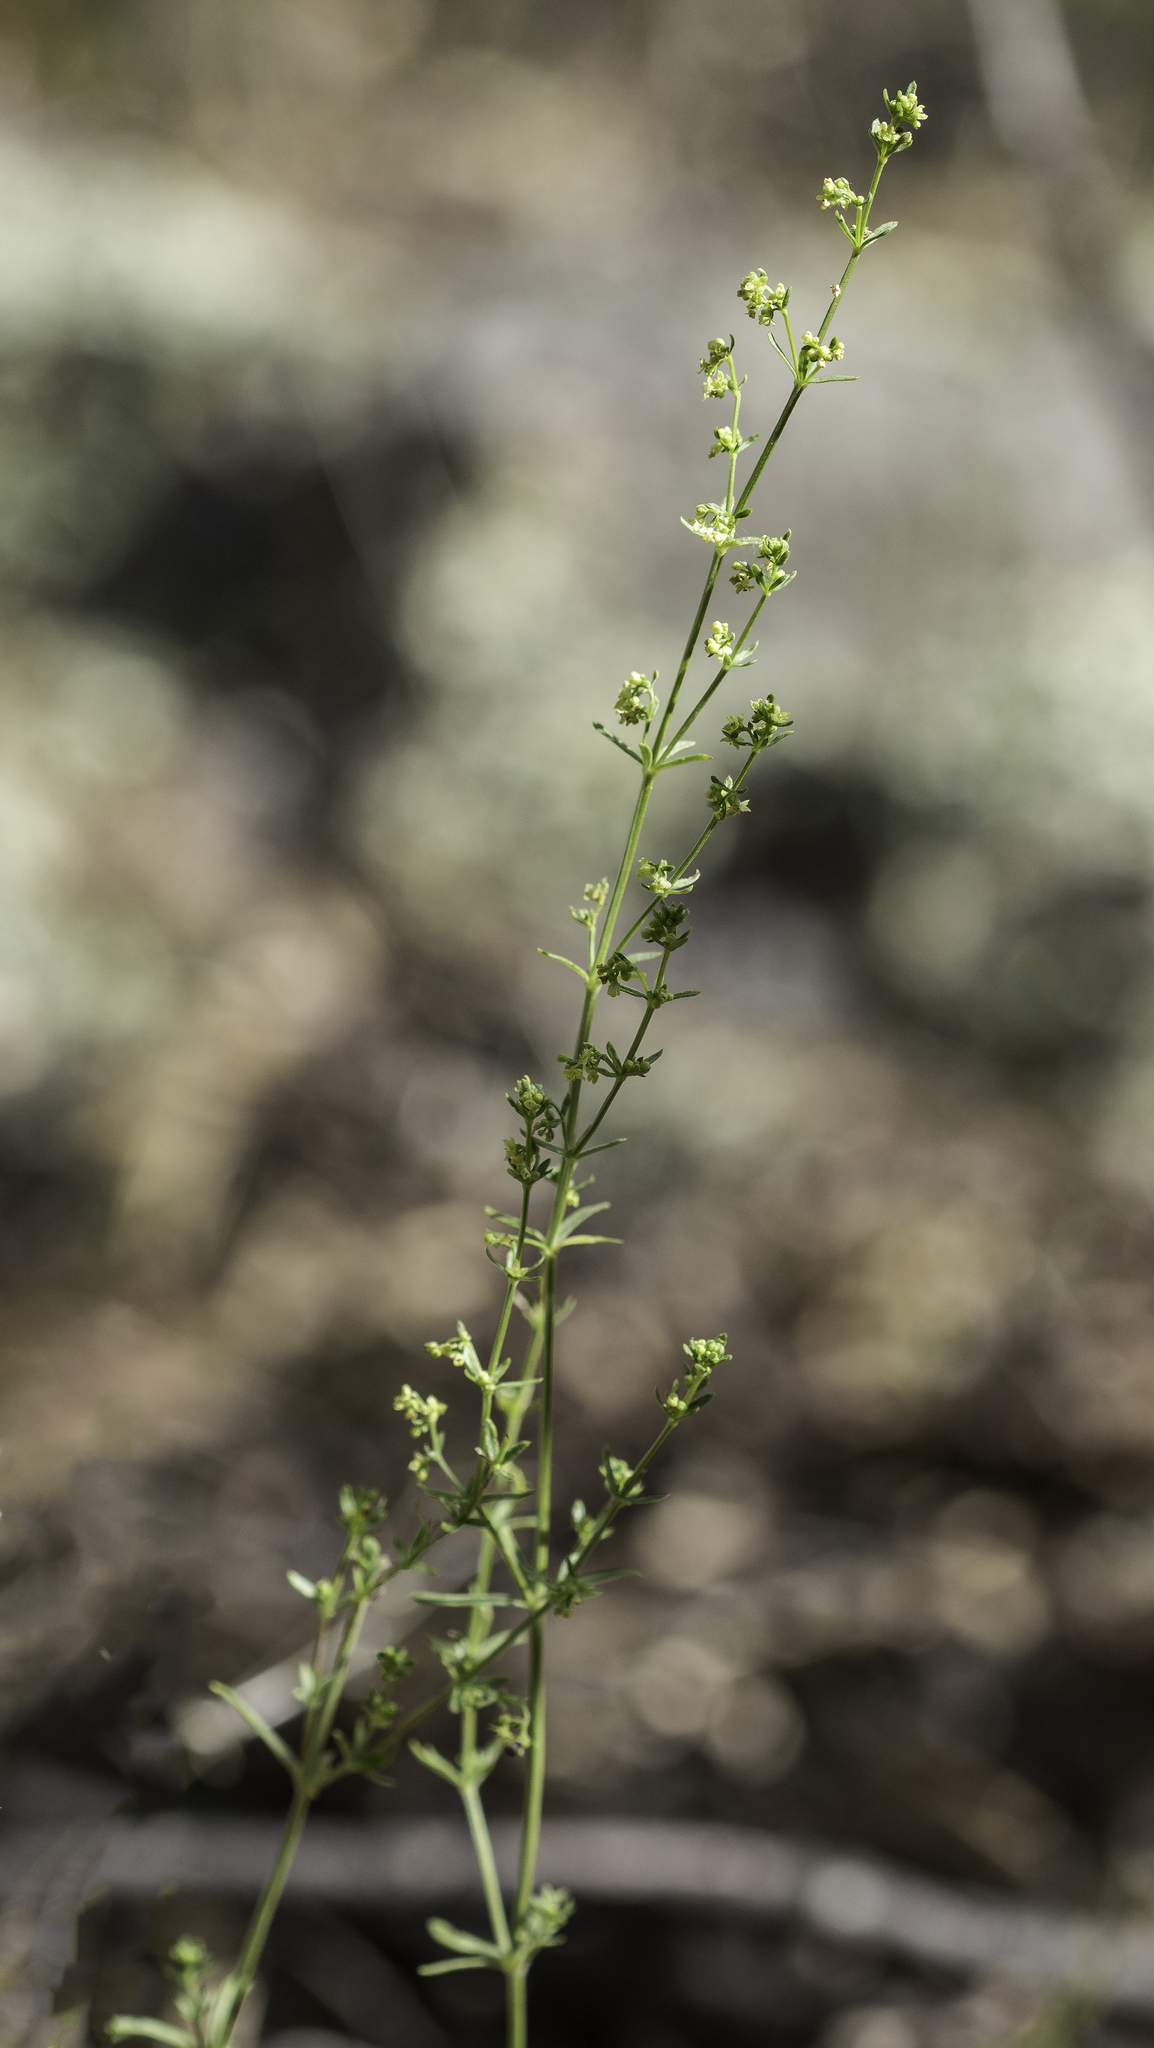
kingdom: Plantae
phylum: Tracheophyta
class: Magnoliopsida
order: Gentianales
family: Rubiaceae
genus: Galium
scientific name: Galium fendleri
